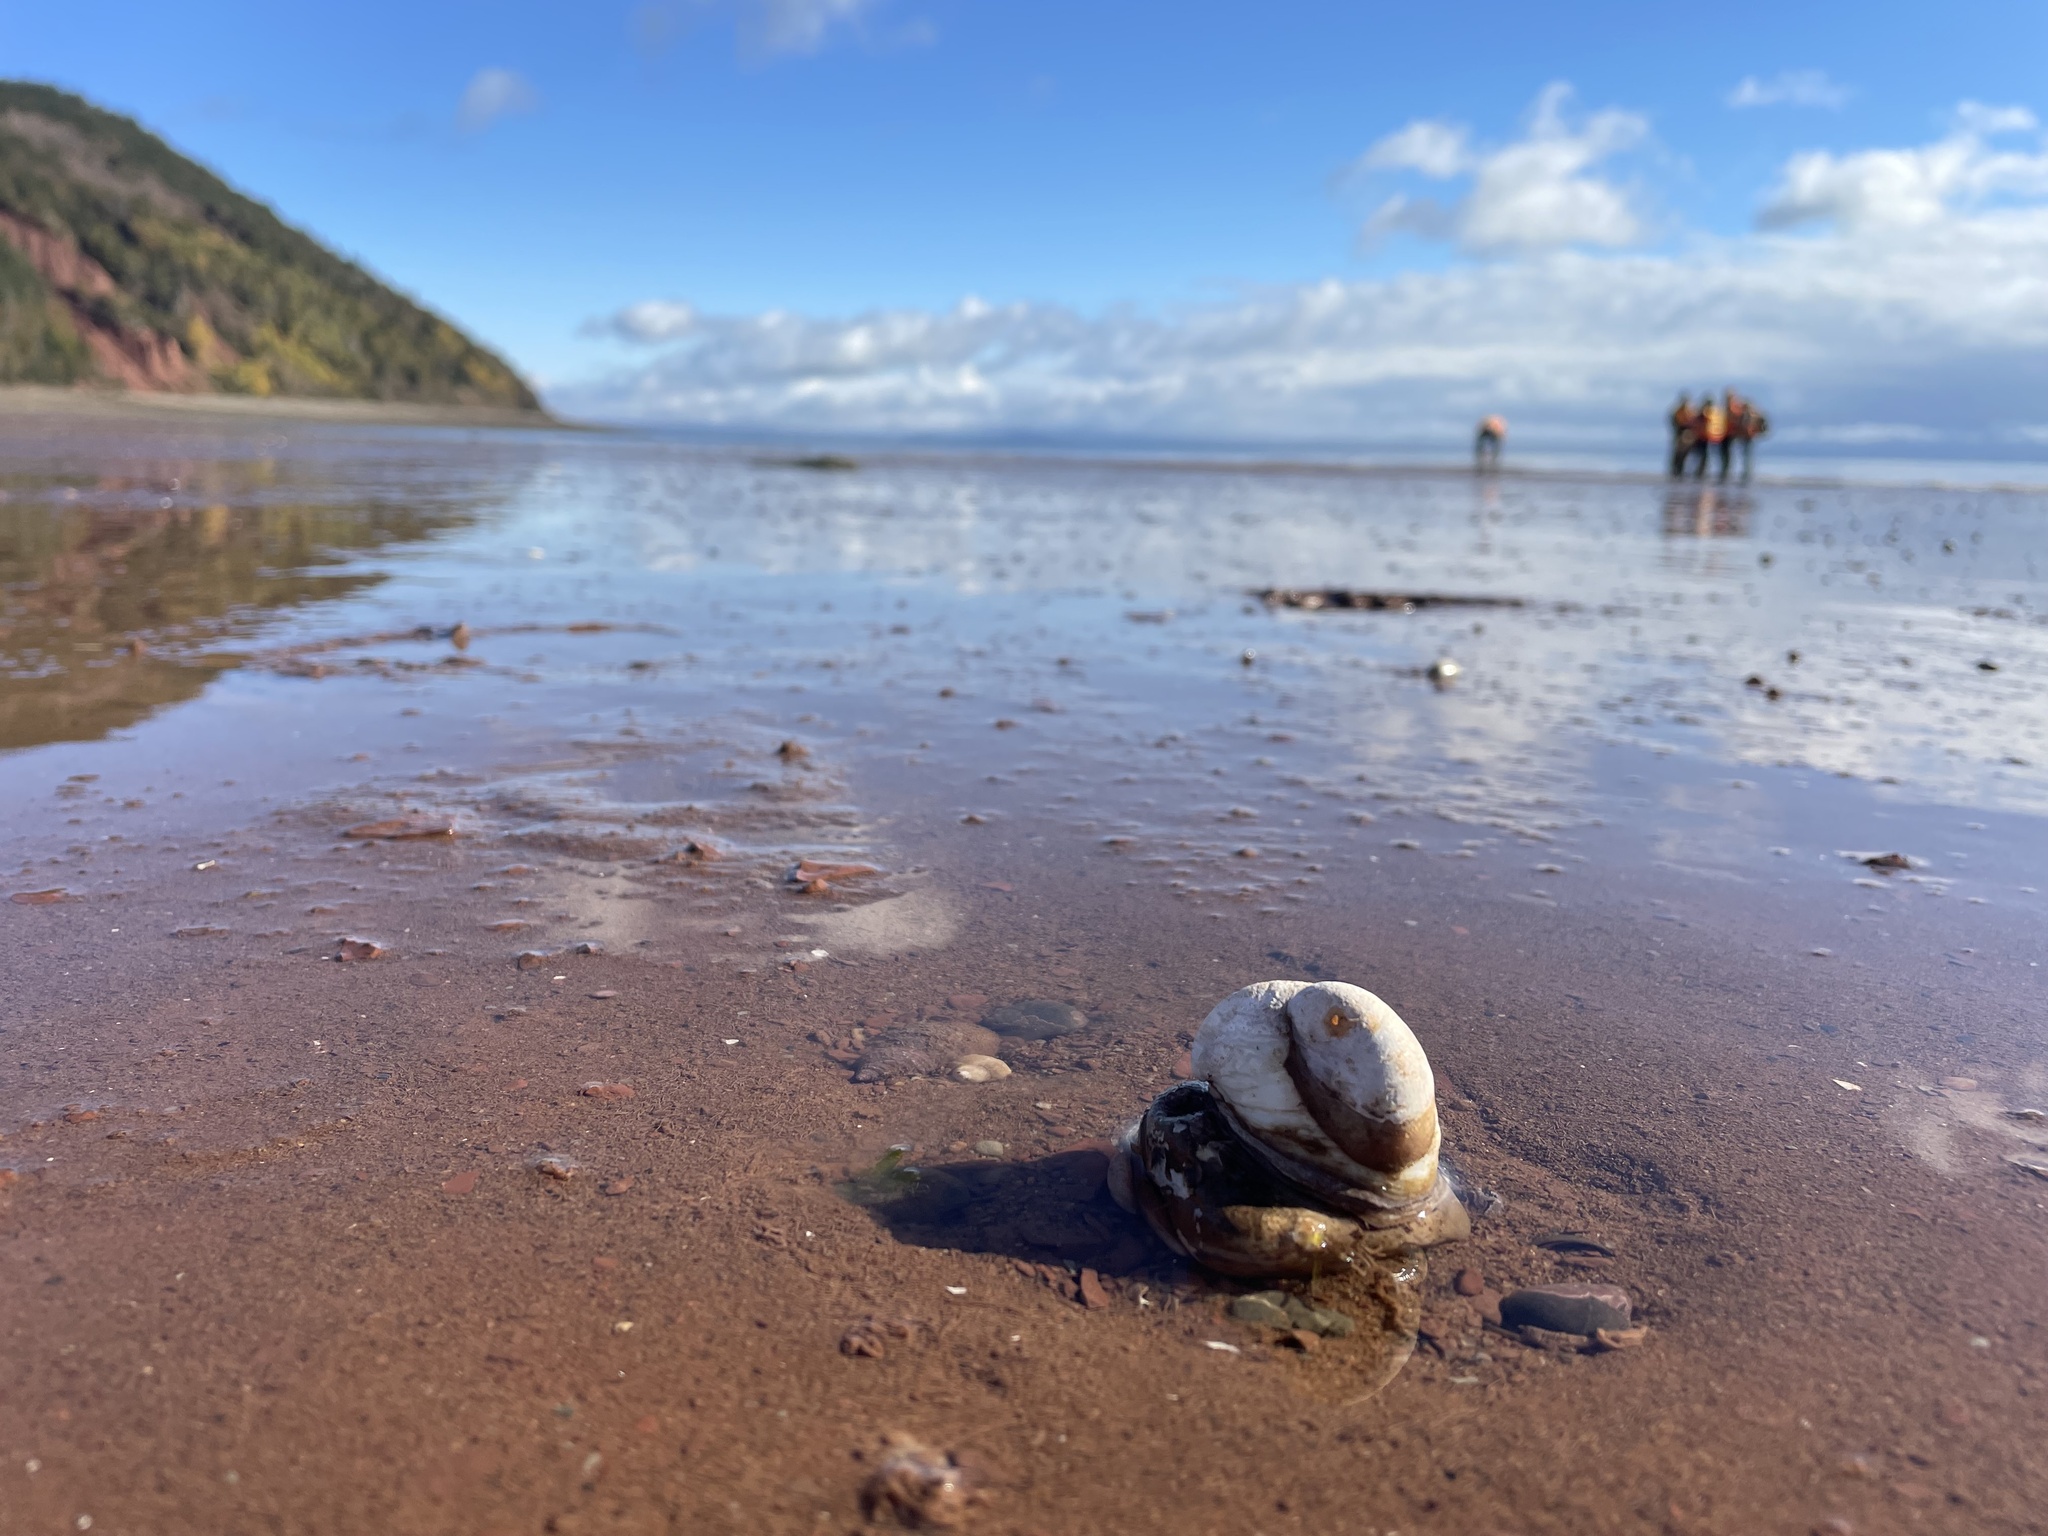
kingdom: Animalia
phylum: Mollusca
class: Gastropoda
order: Littorinimorpha
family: Calyptraeidae
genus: Crepidula
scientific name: Crepidula fornicata
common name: Slipper limpet
